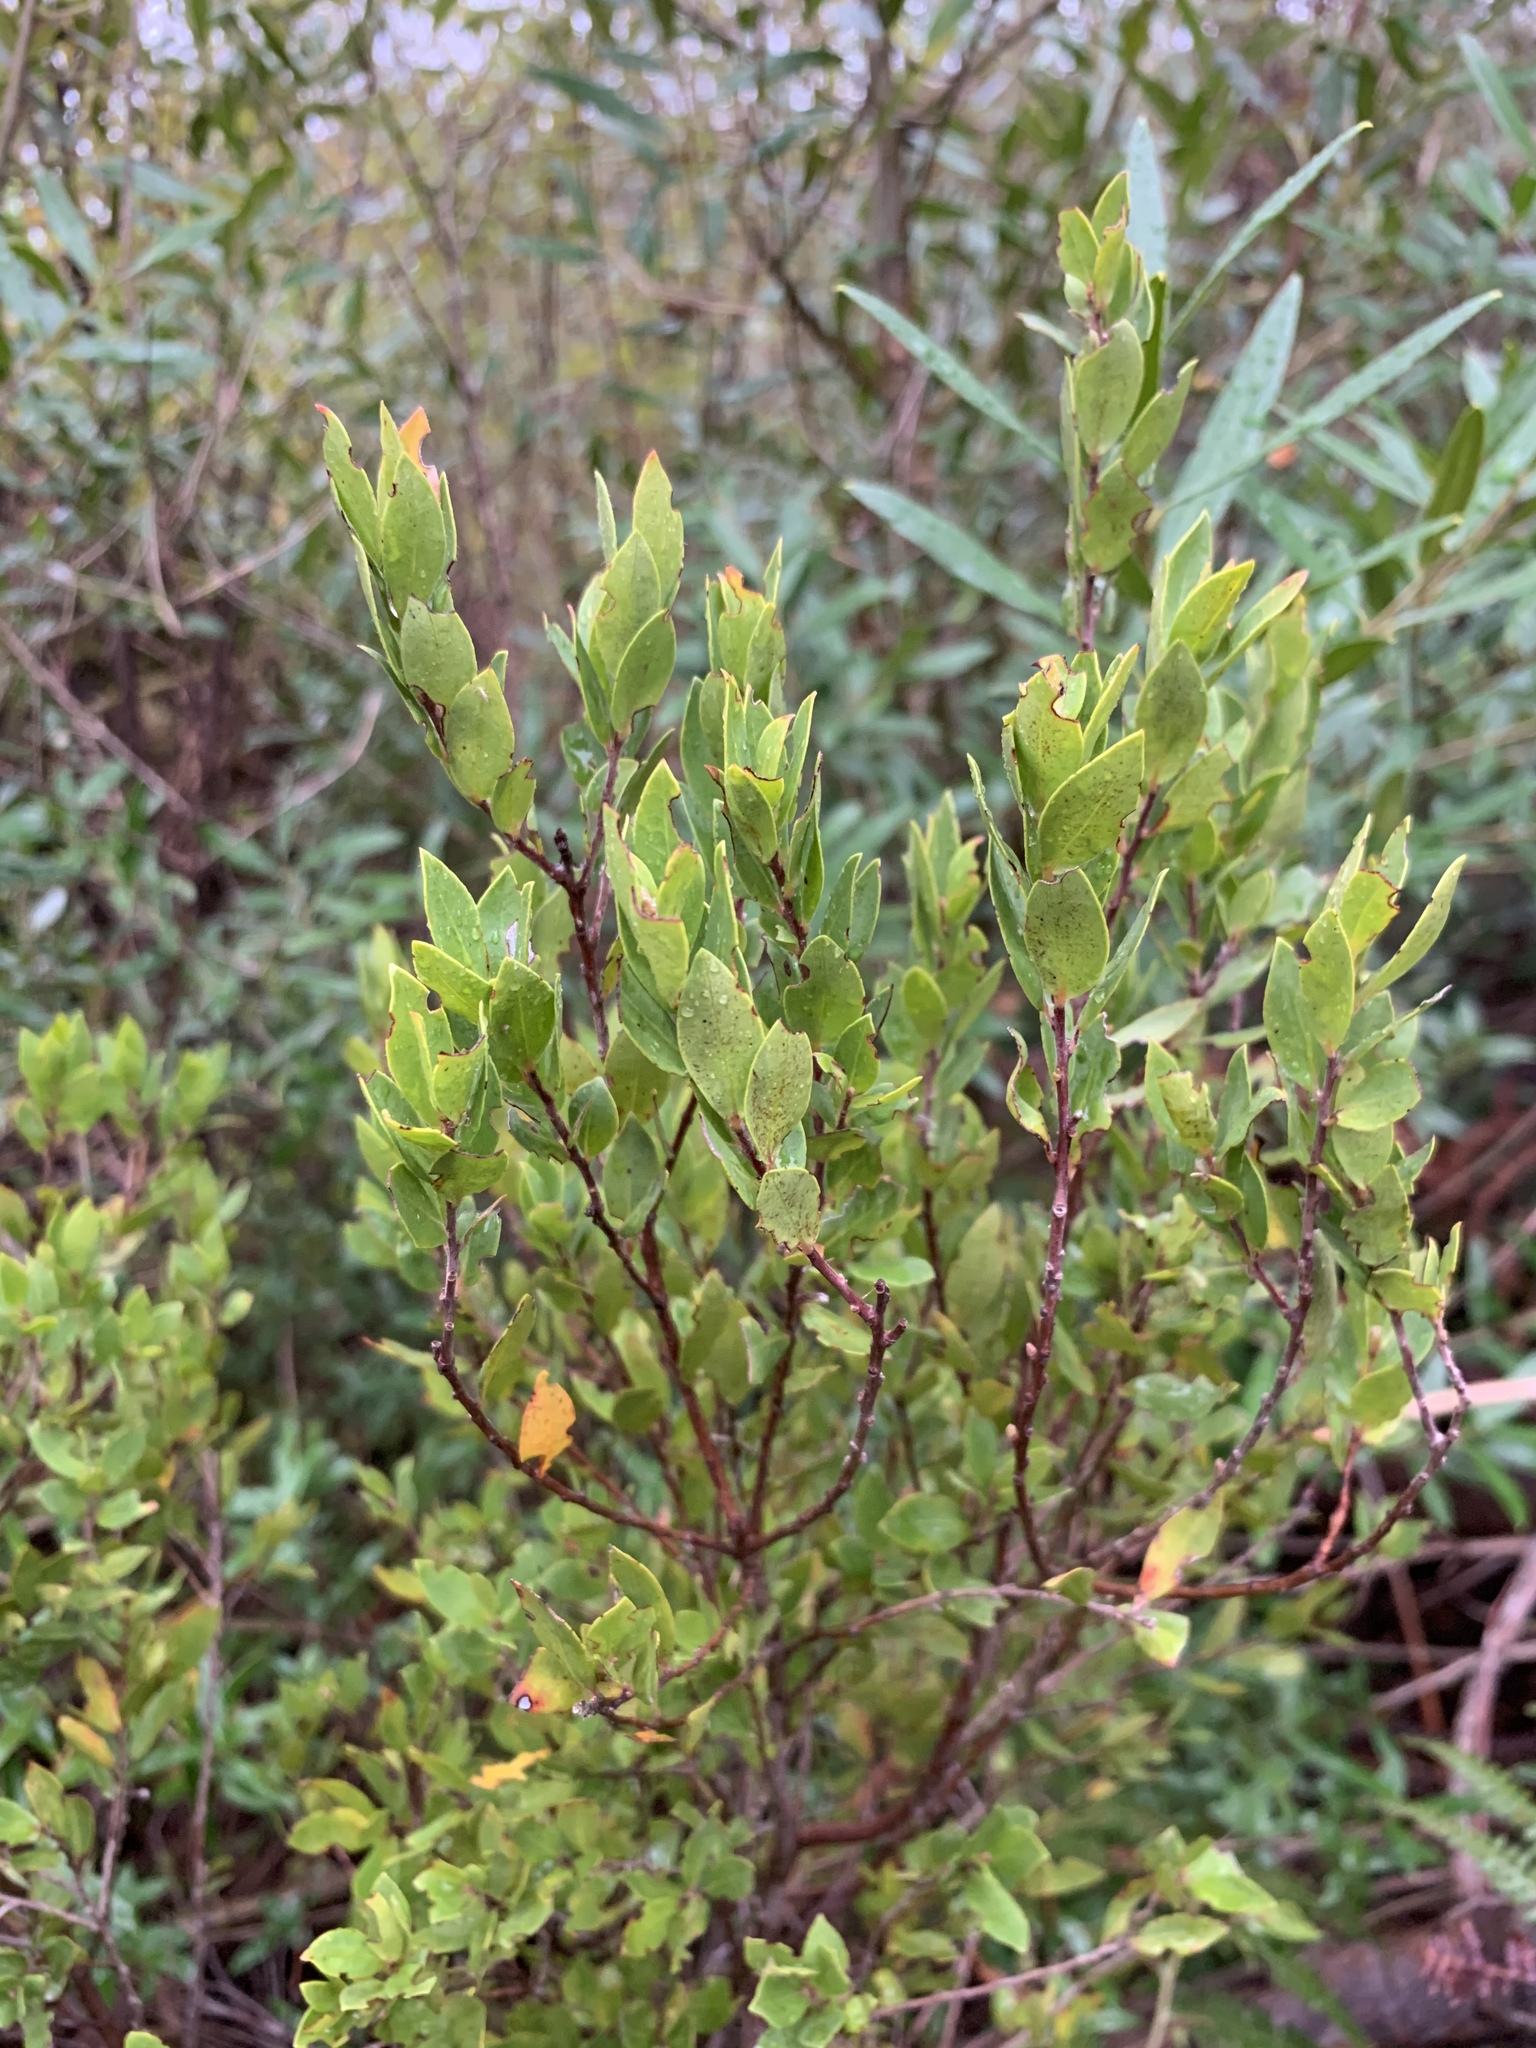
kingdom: Plantae
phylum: Tracheophyta
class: Magnoliopsida
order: Ericales
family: Ebenaceae
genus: Diospyros
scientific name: Diospyros glabra
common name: Fynbos star apple
